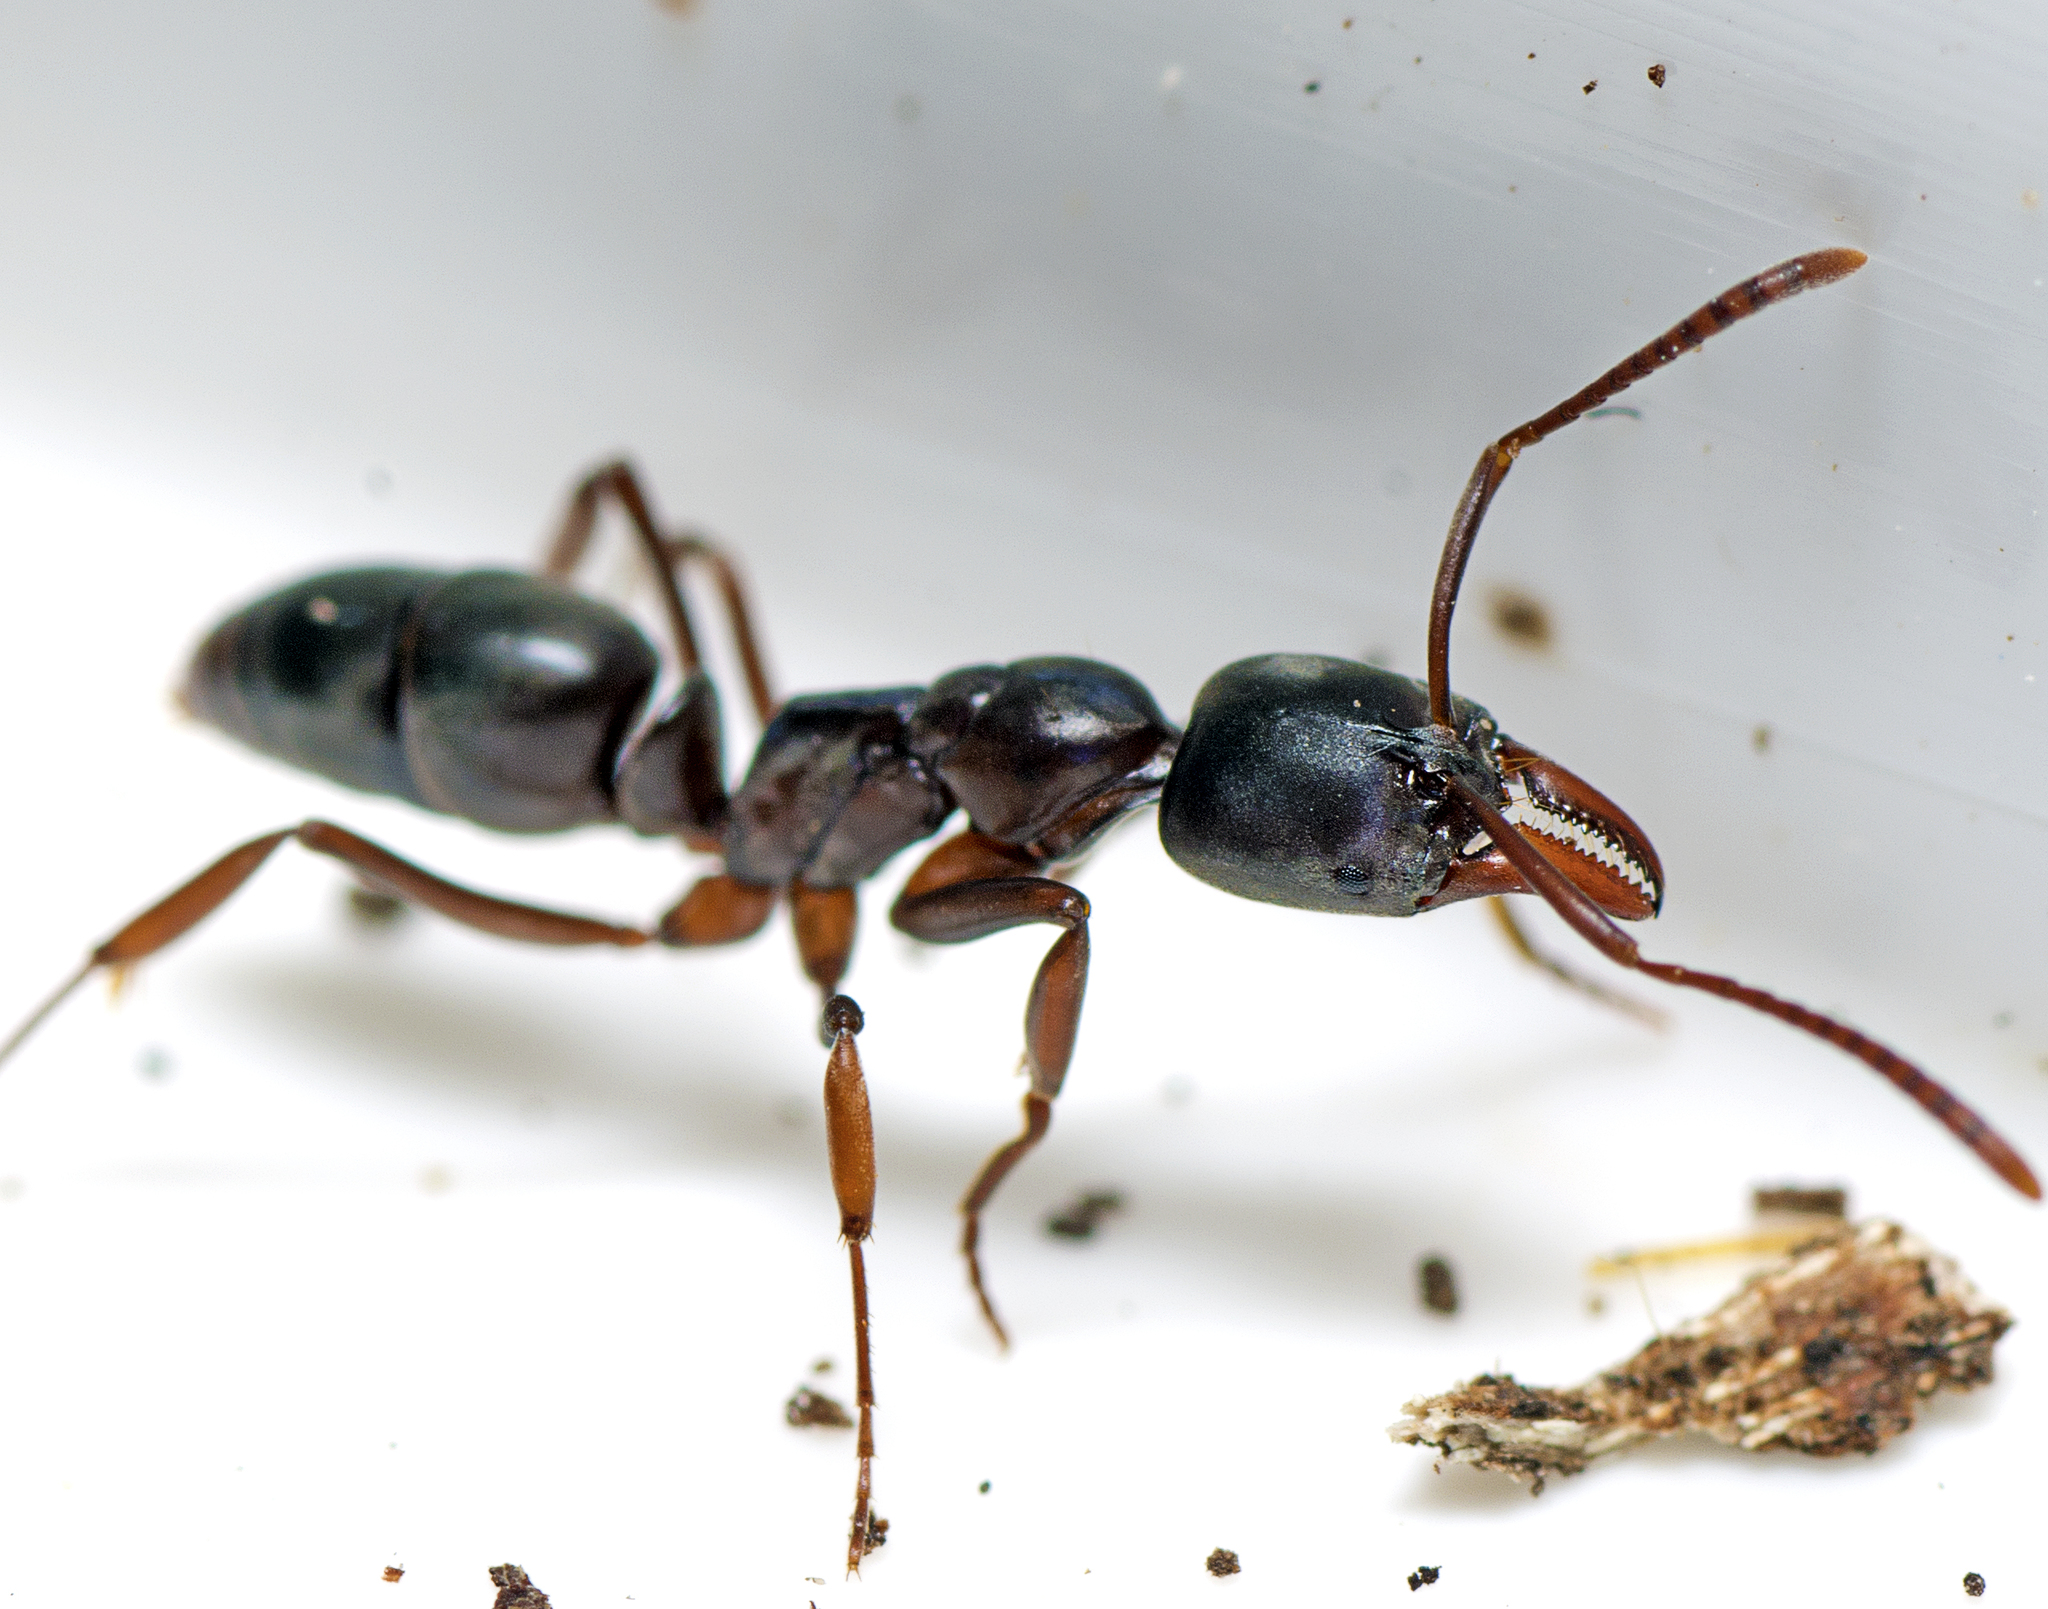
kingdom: Animalia
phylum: Arthropoda
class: Insecta
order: Hymenoptera
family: Formicidae
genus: Mesoponera
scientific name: Mesoponera
